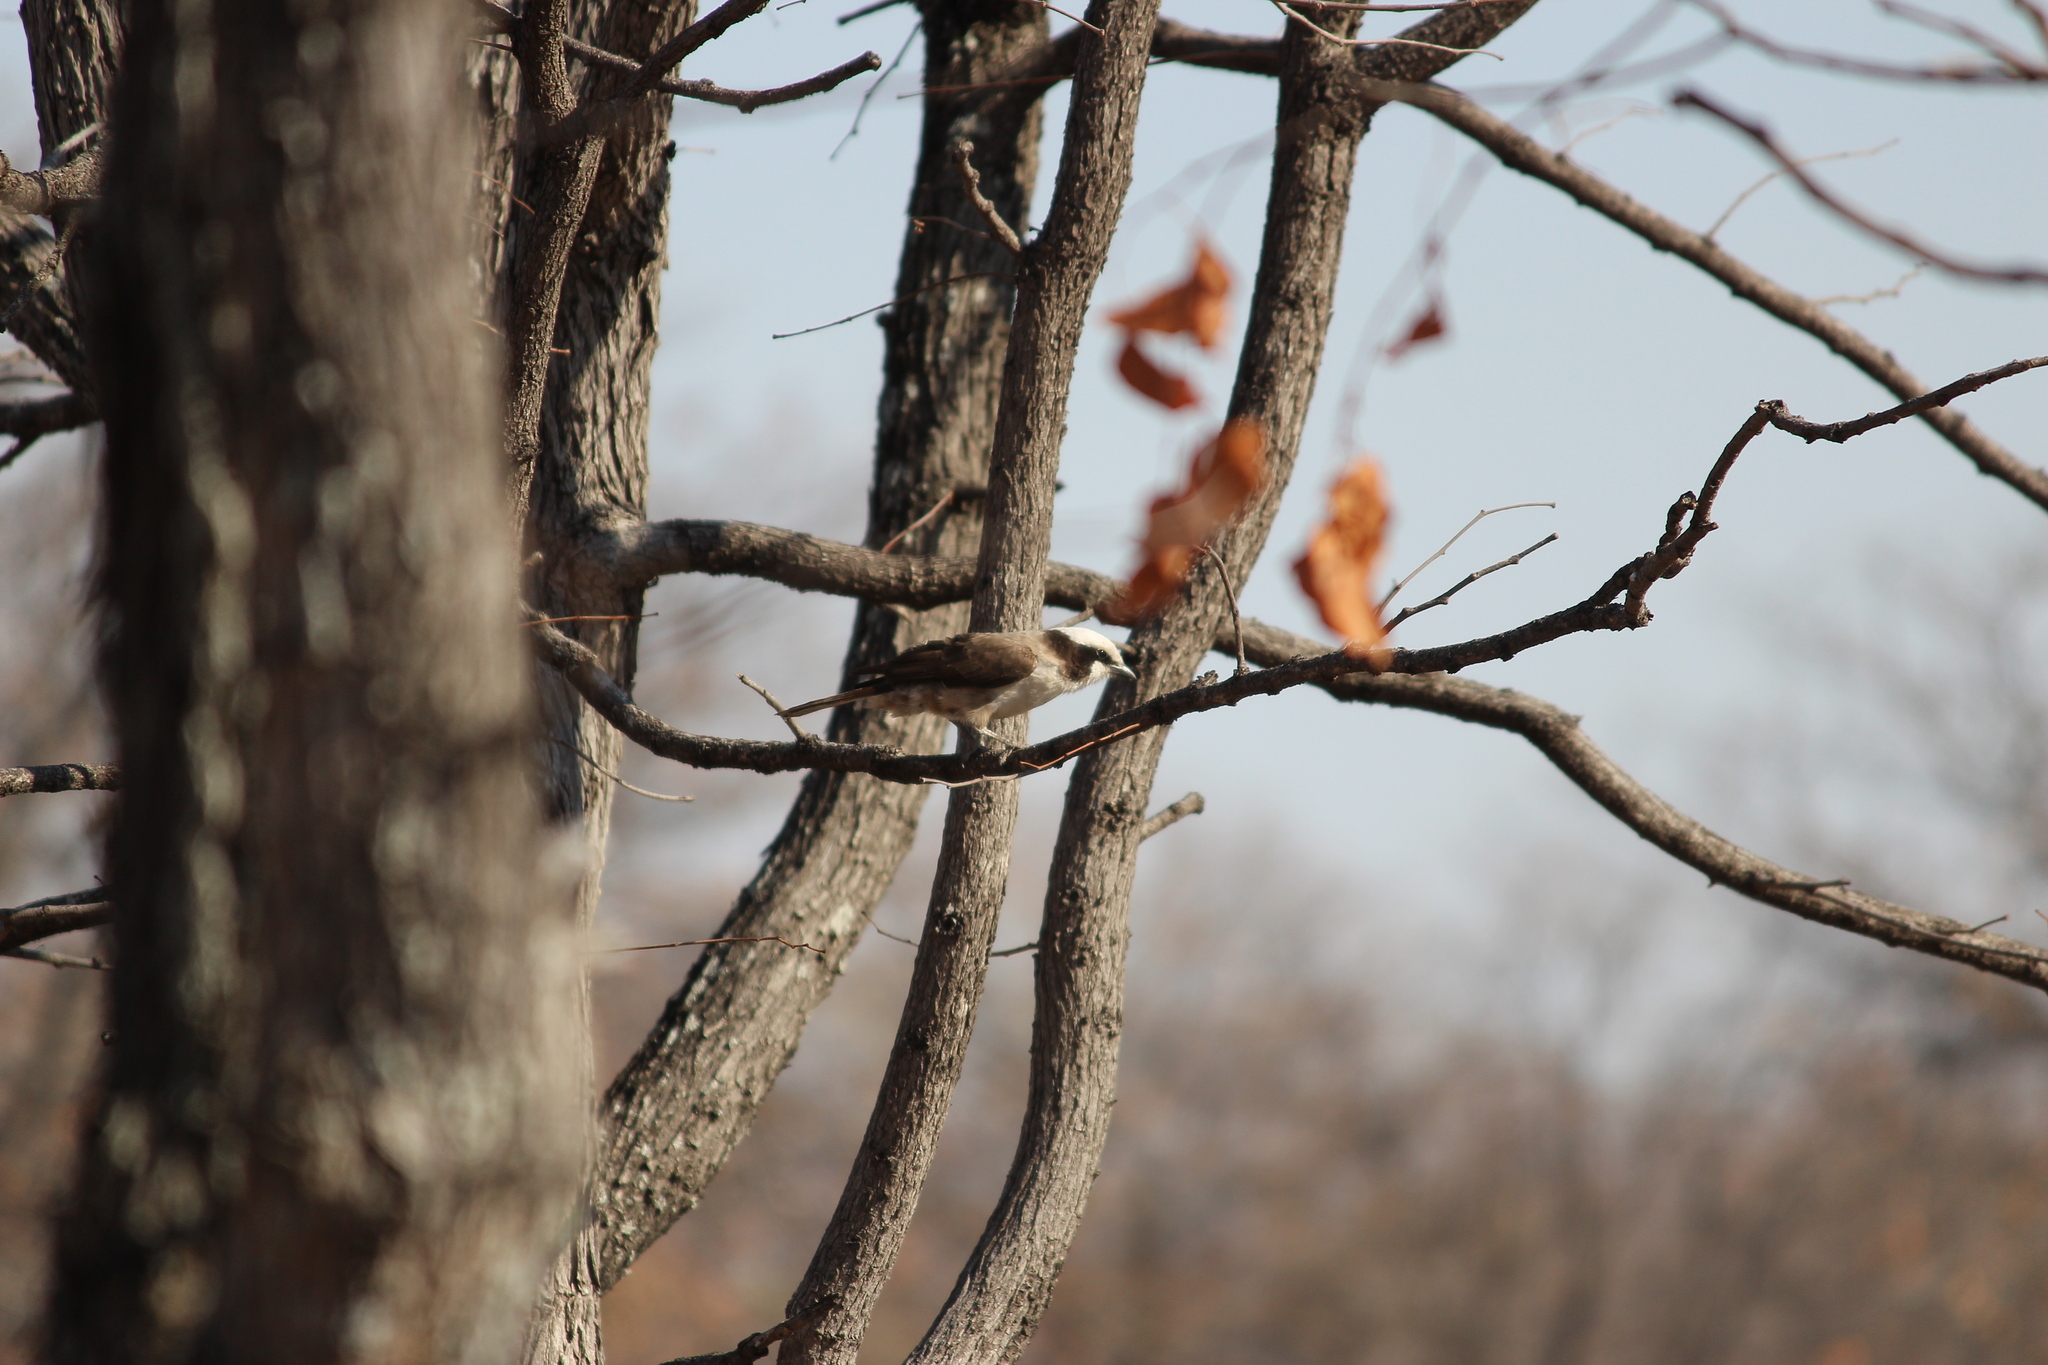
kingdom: Animalia
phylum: Chordata
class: Aves
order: Passeriformes
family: Laniidae
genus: Eurocephalus
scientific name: Eurocephalus anguitimens
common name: Southern white-crowned shrike
